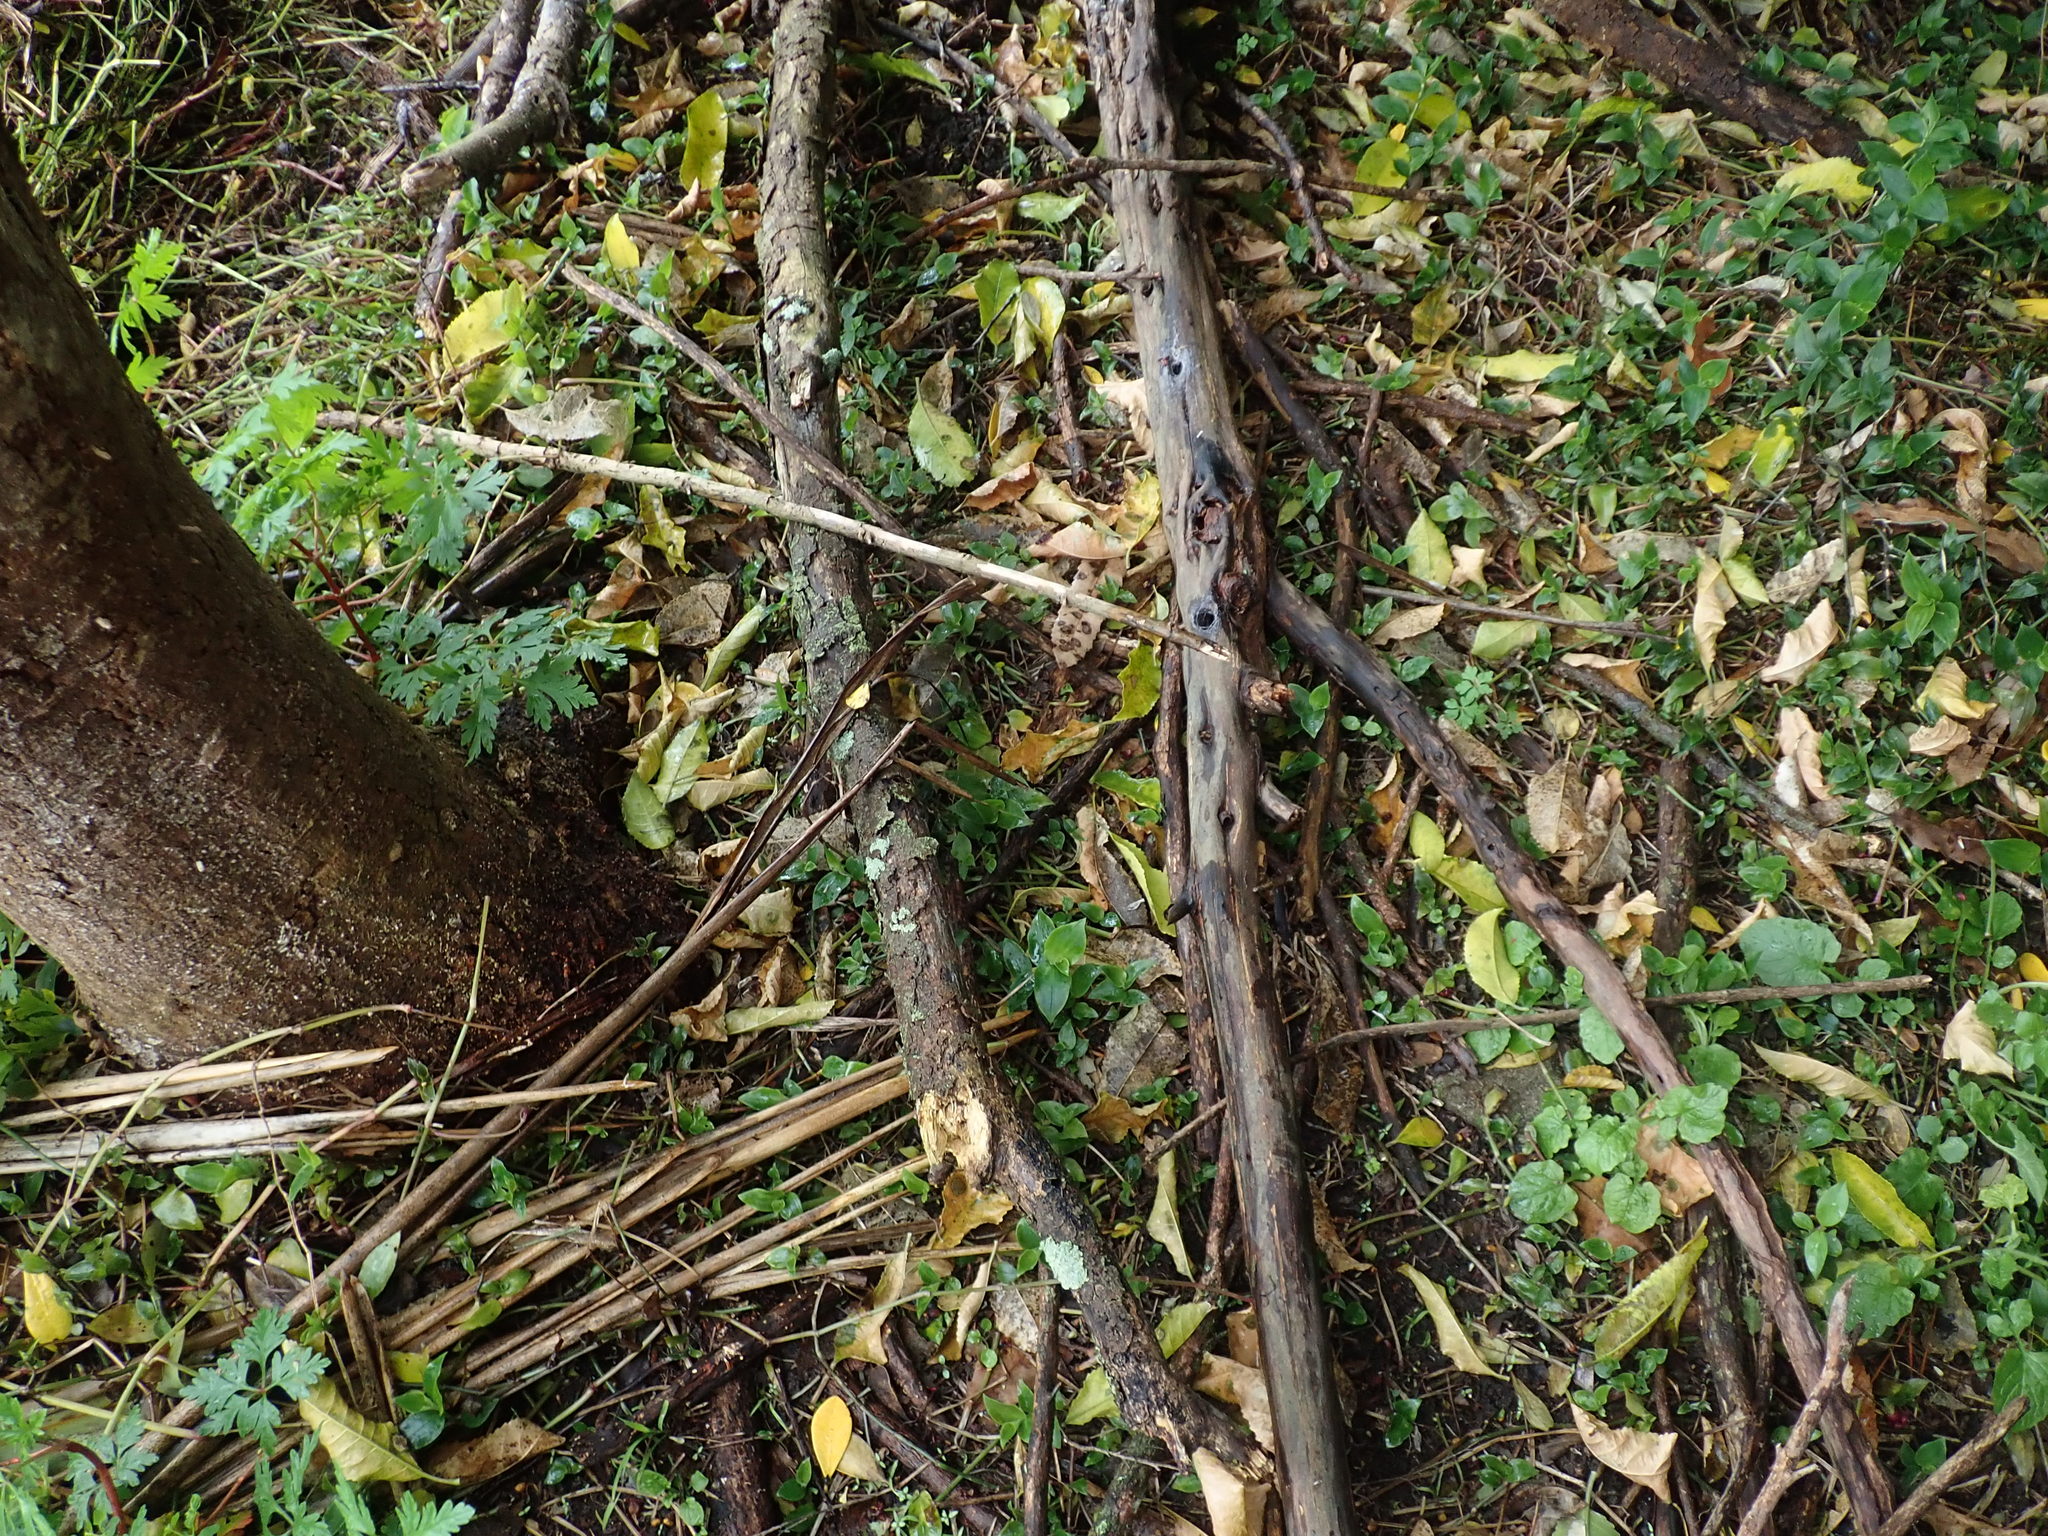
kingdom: Plantae
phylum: Tracheophyta
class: Magnoliopsida
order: Geraniales
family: Geraniaceae
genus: Geranium
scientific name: Geranium robertianum
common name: Herb-robert
